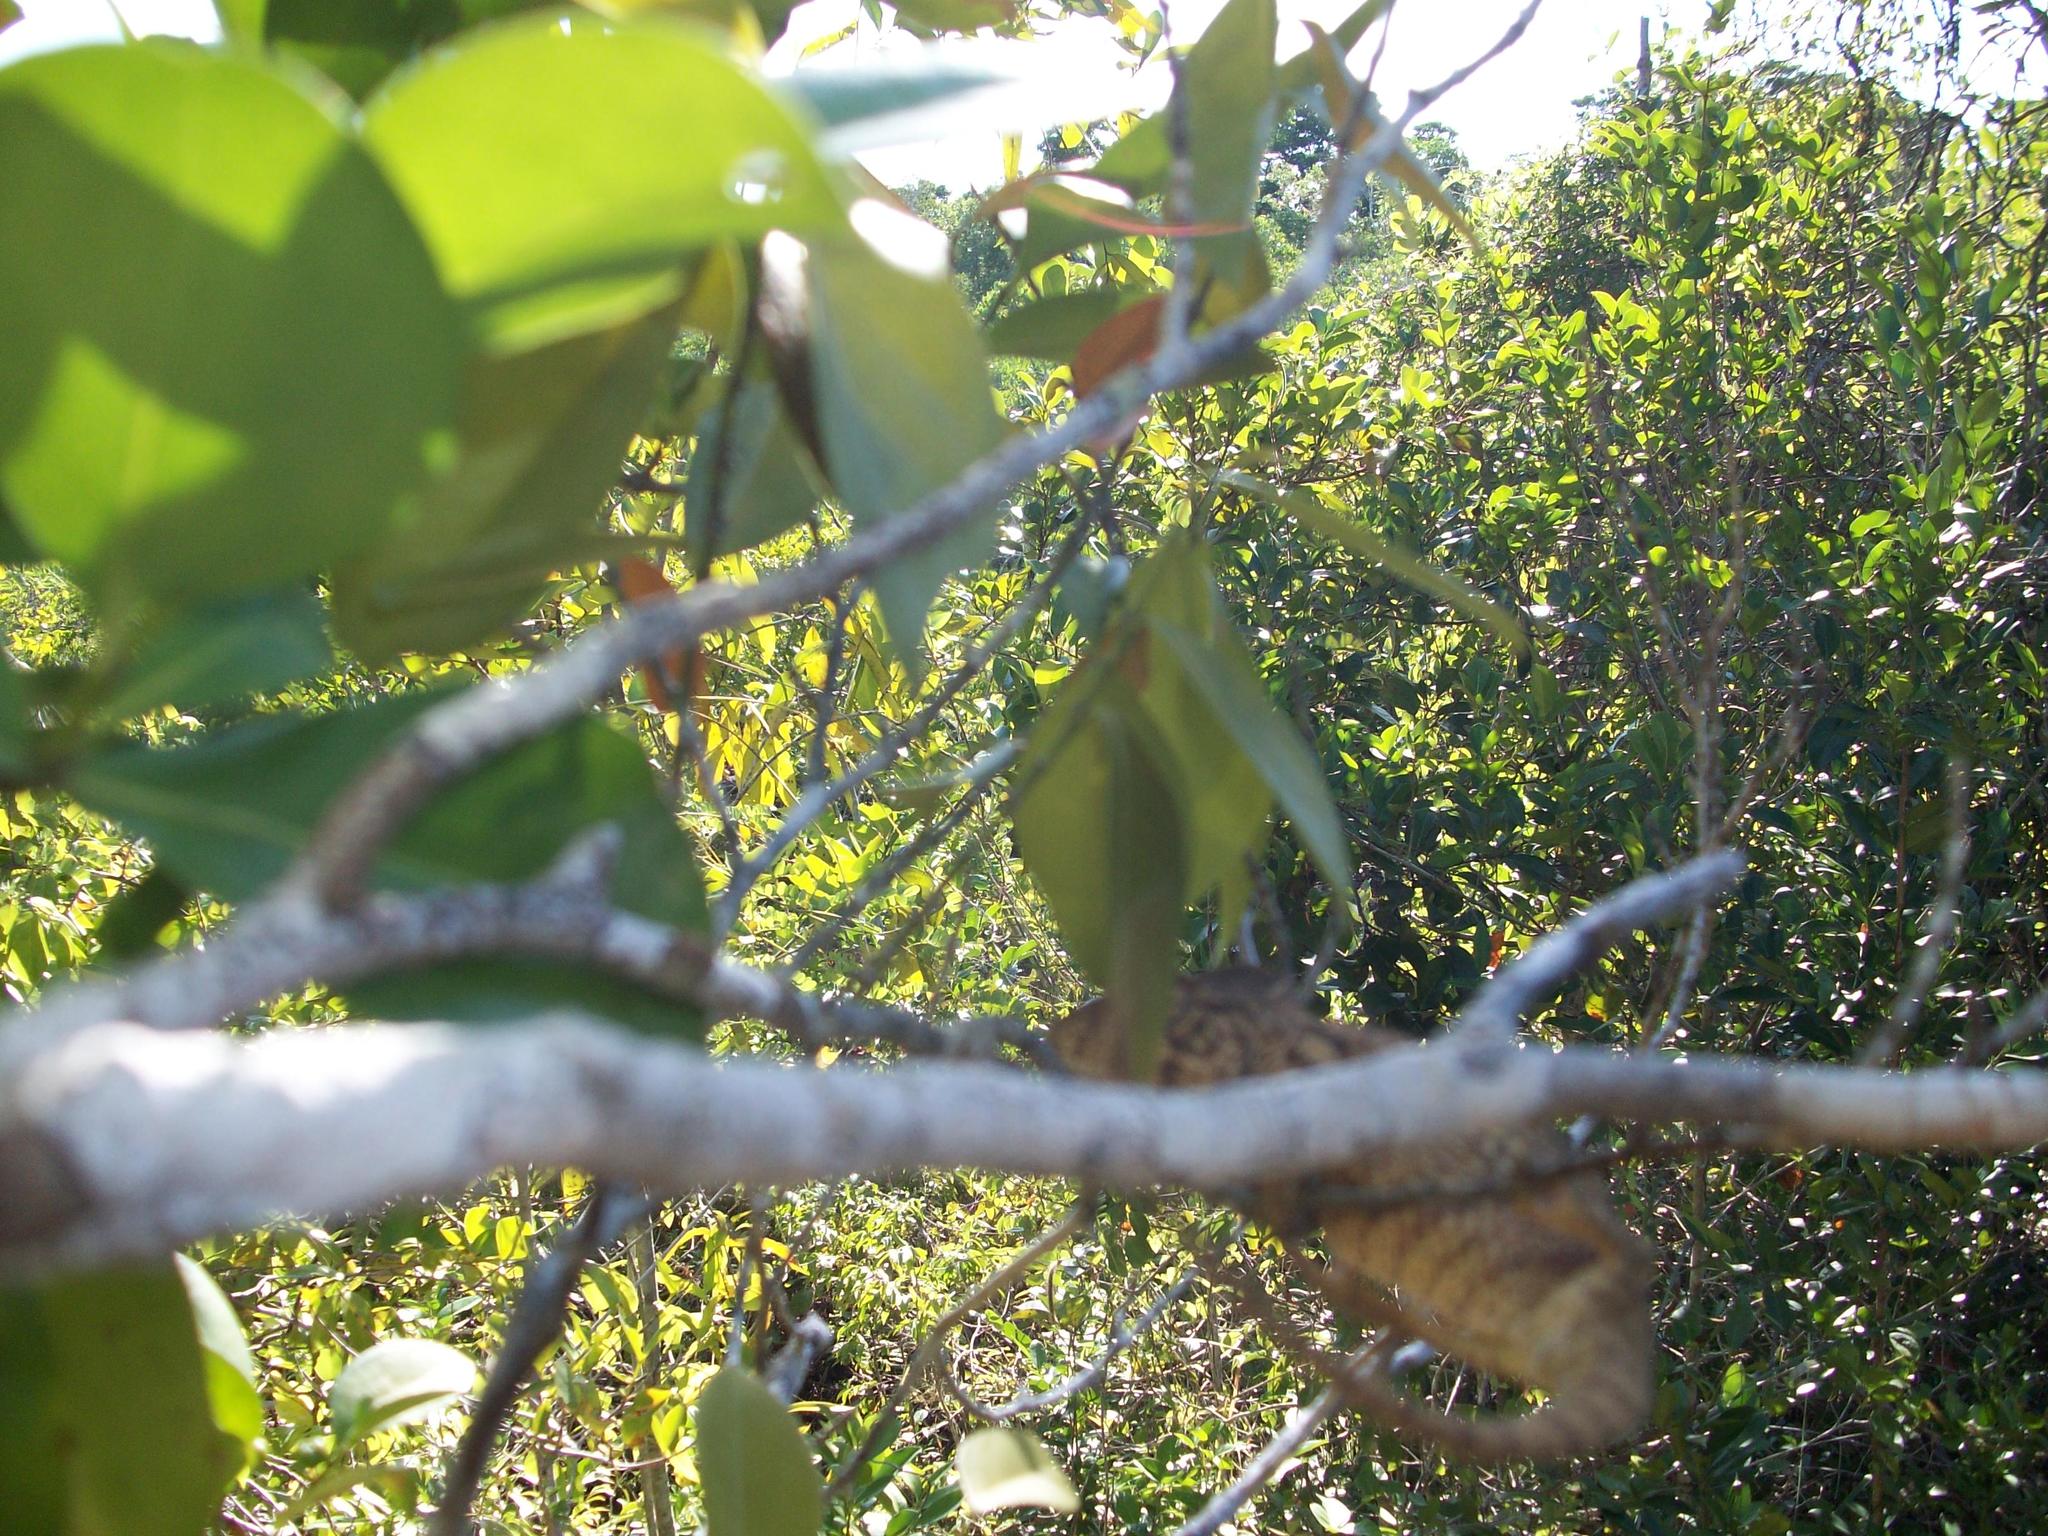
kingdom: Animalia
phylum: Chordata
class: Squamata
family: Chamaeleonidae
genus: Furcifer
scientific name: Furcifer oustaleti
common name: Oustalet's chameleon
